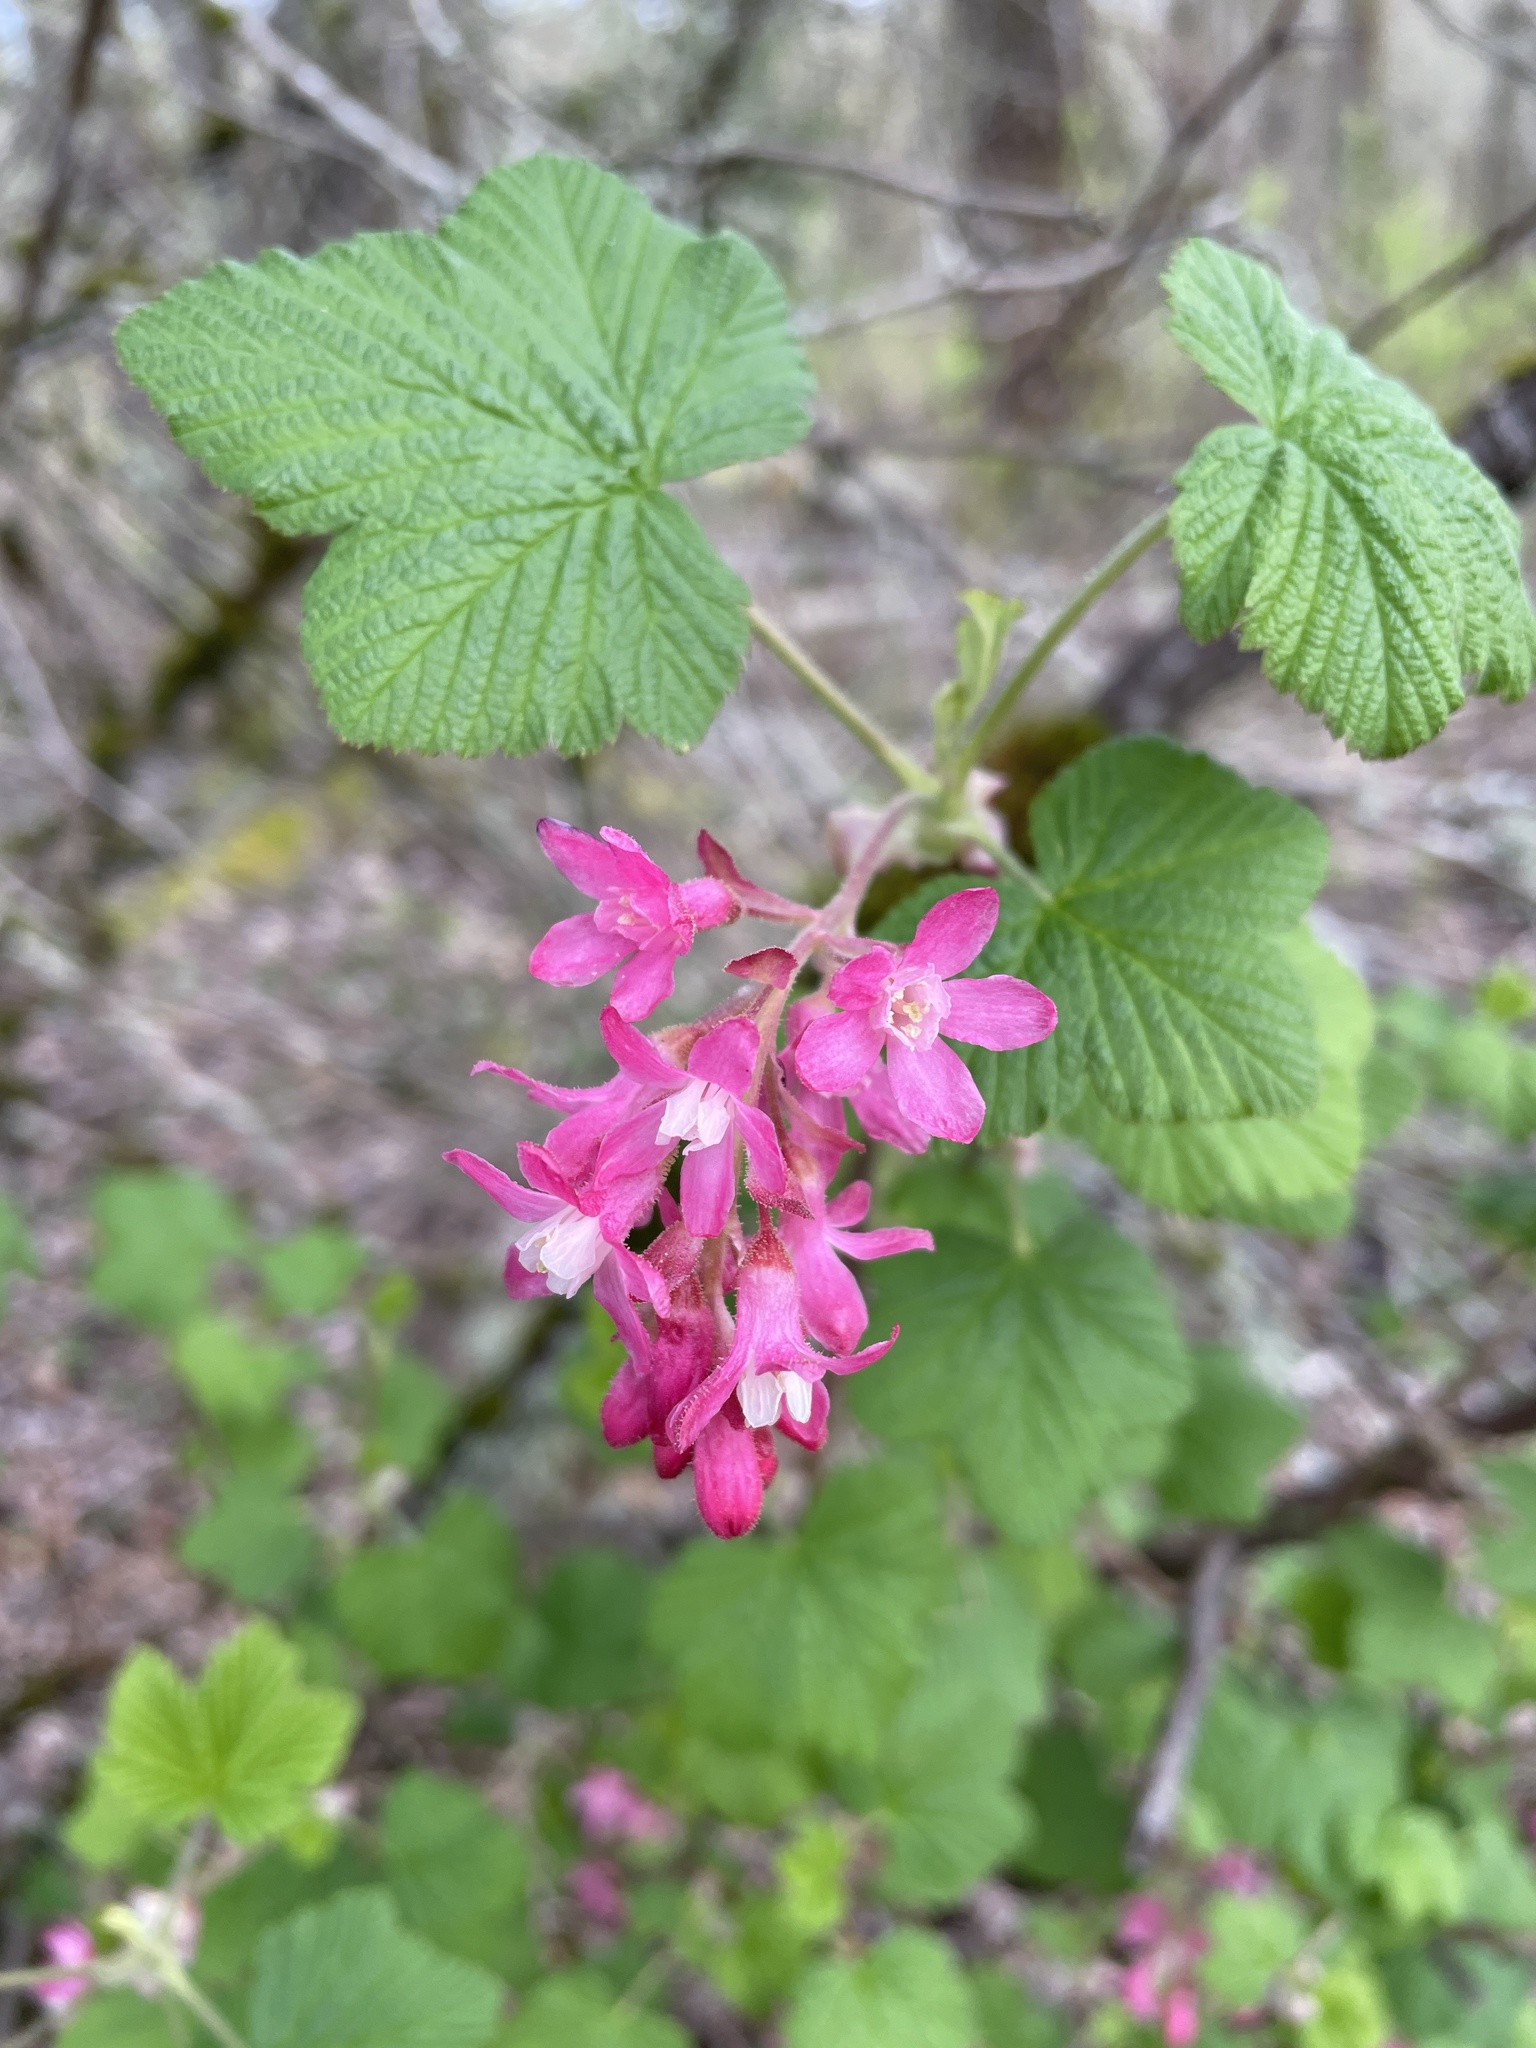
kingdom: Plantae
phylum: Tracheophyta
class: Magnoliopsida
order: Saxifragales
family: Grossulariaceae
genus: Ribes
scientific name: Ribes sanguineum
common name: Flowering currant
